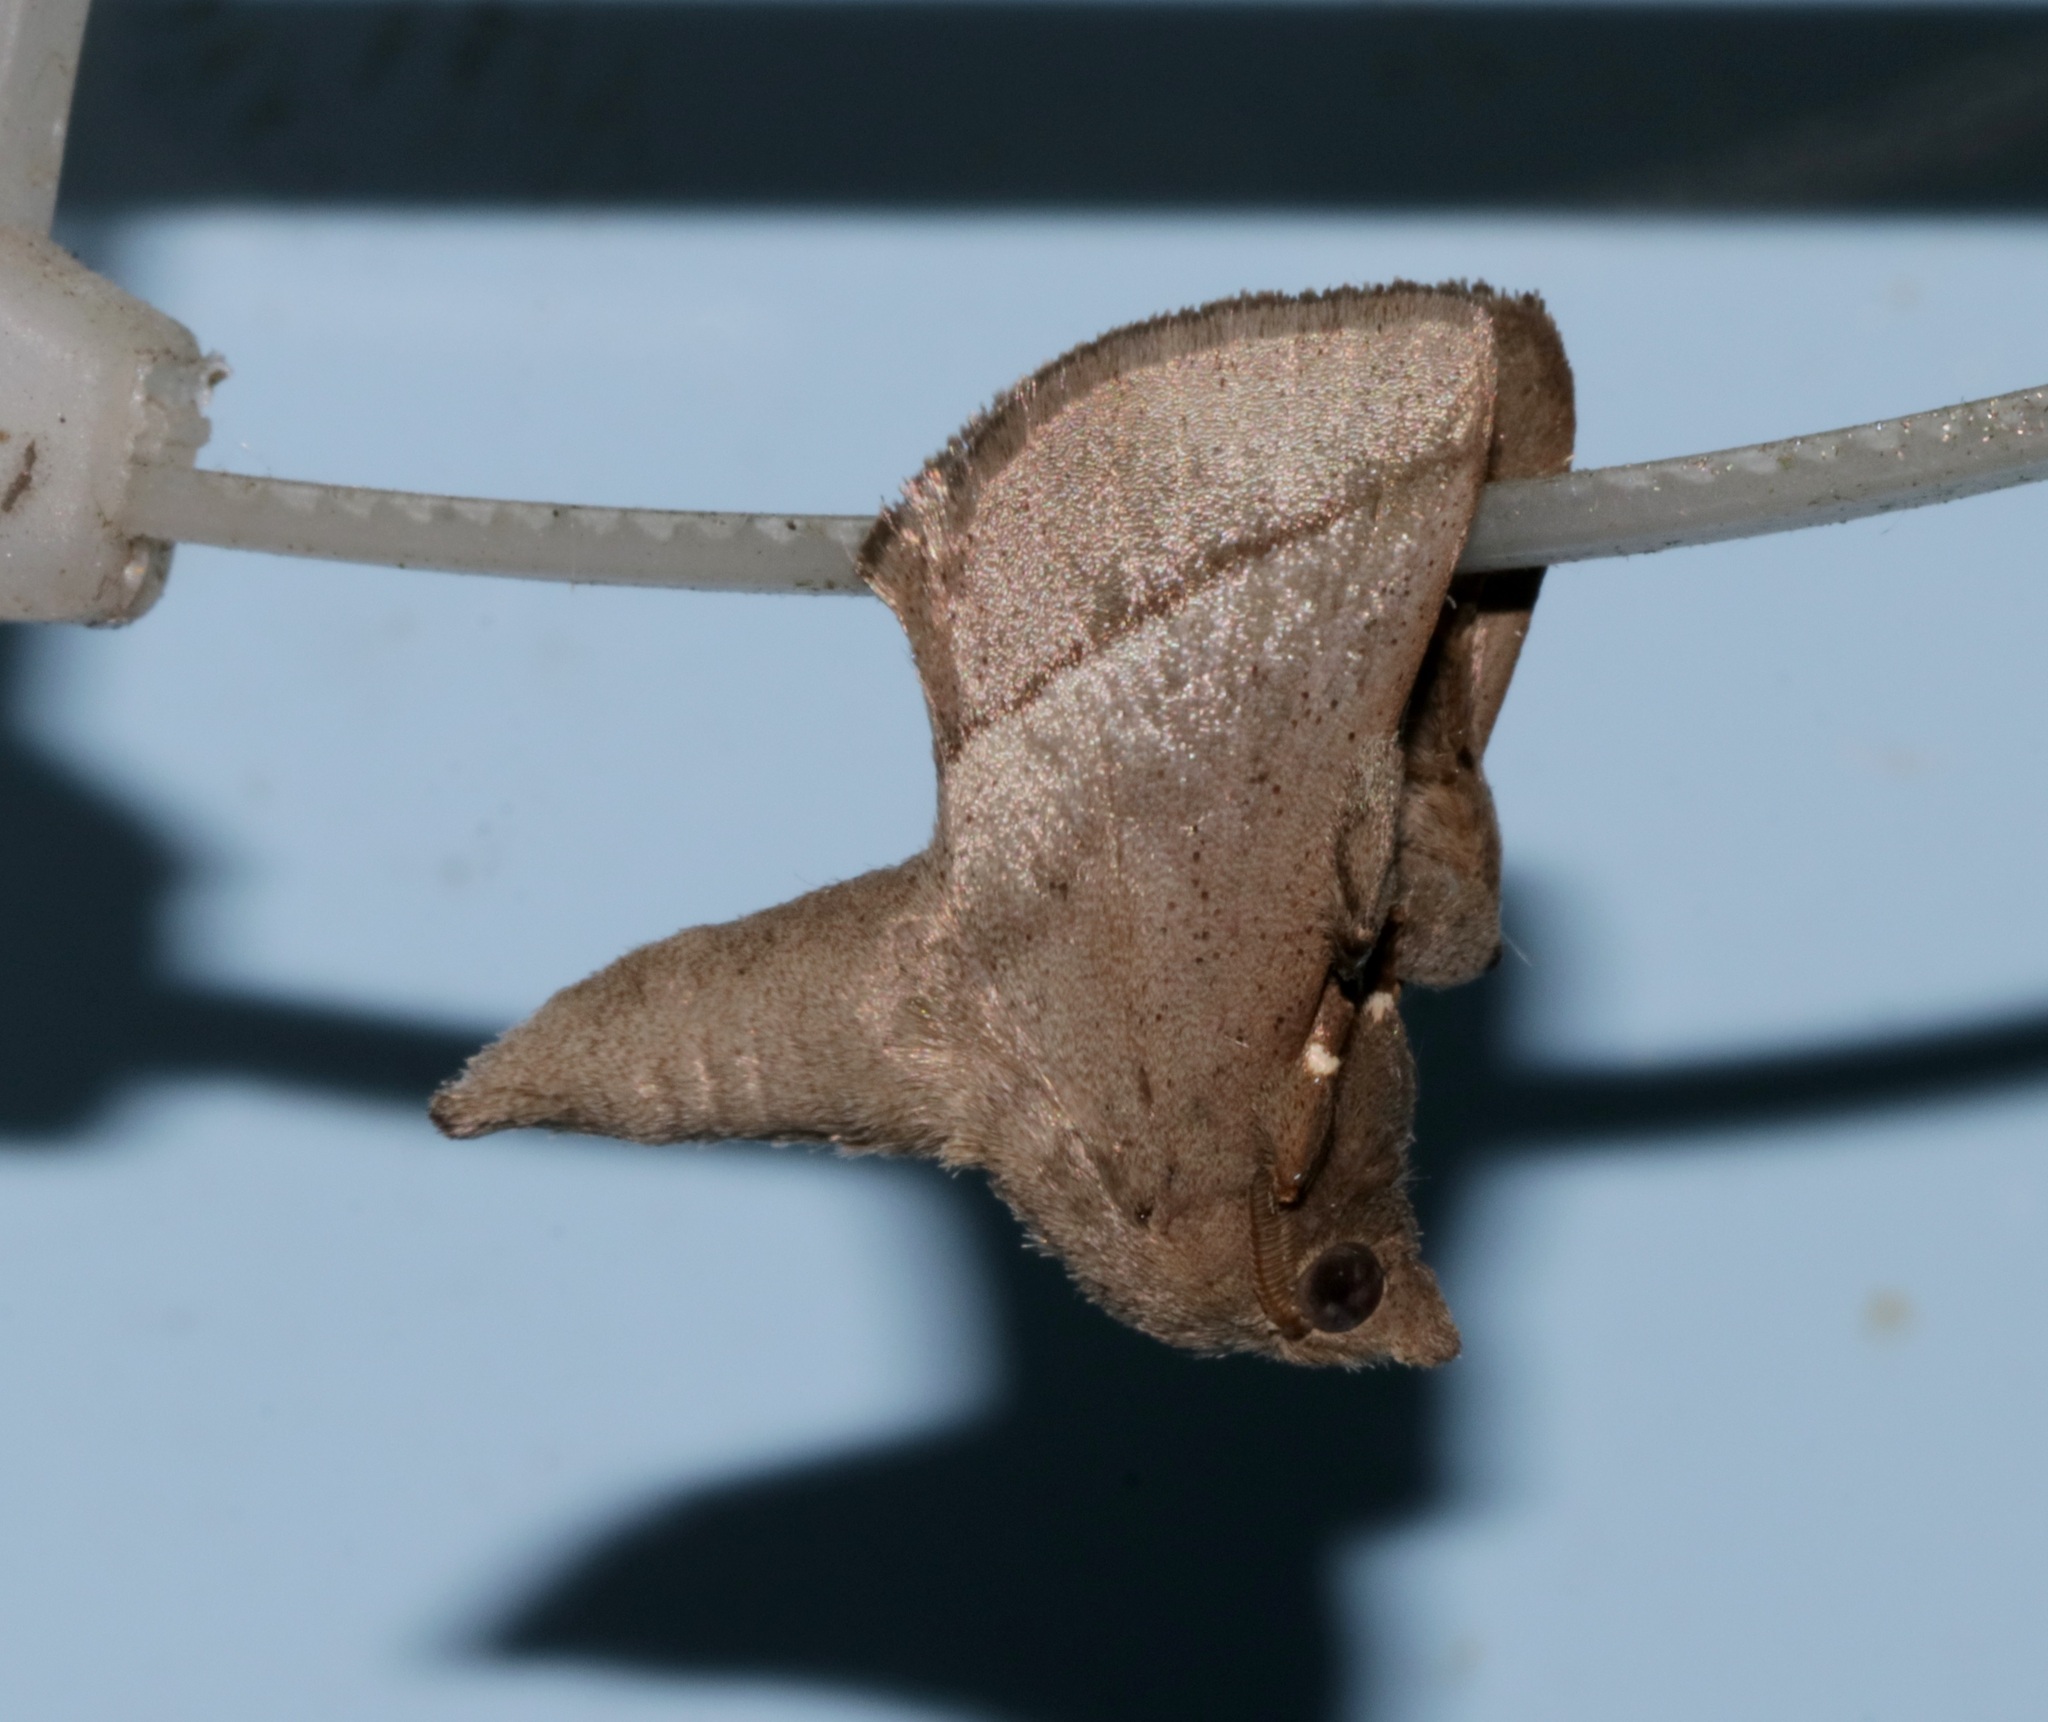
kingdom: Animalia
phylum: Arthropoda
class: Insecta
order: Lepidoptera
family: Limacodidae
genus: Quasithosea
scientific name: Quasithosea obliquistriga
